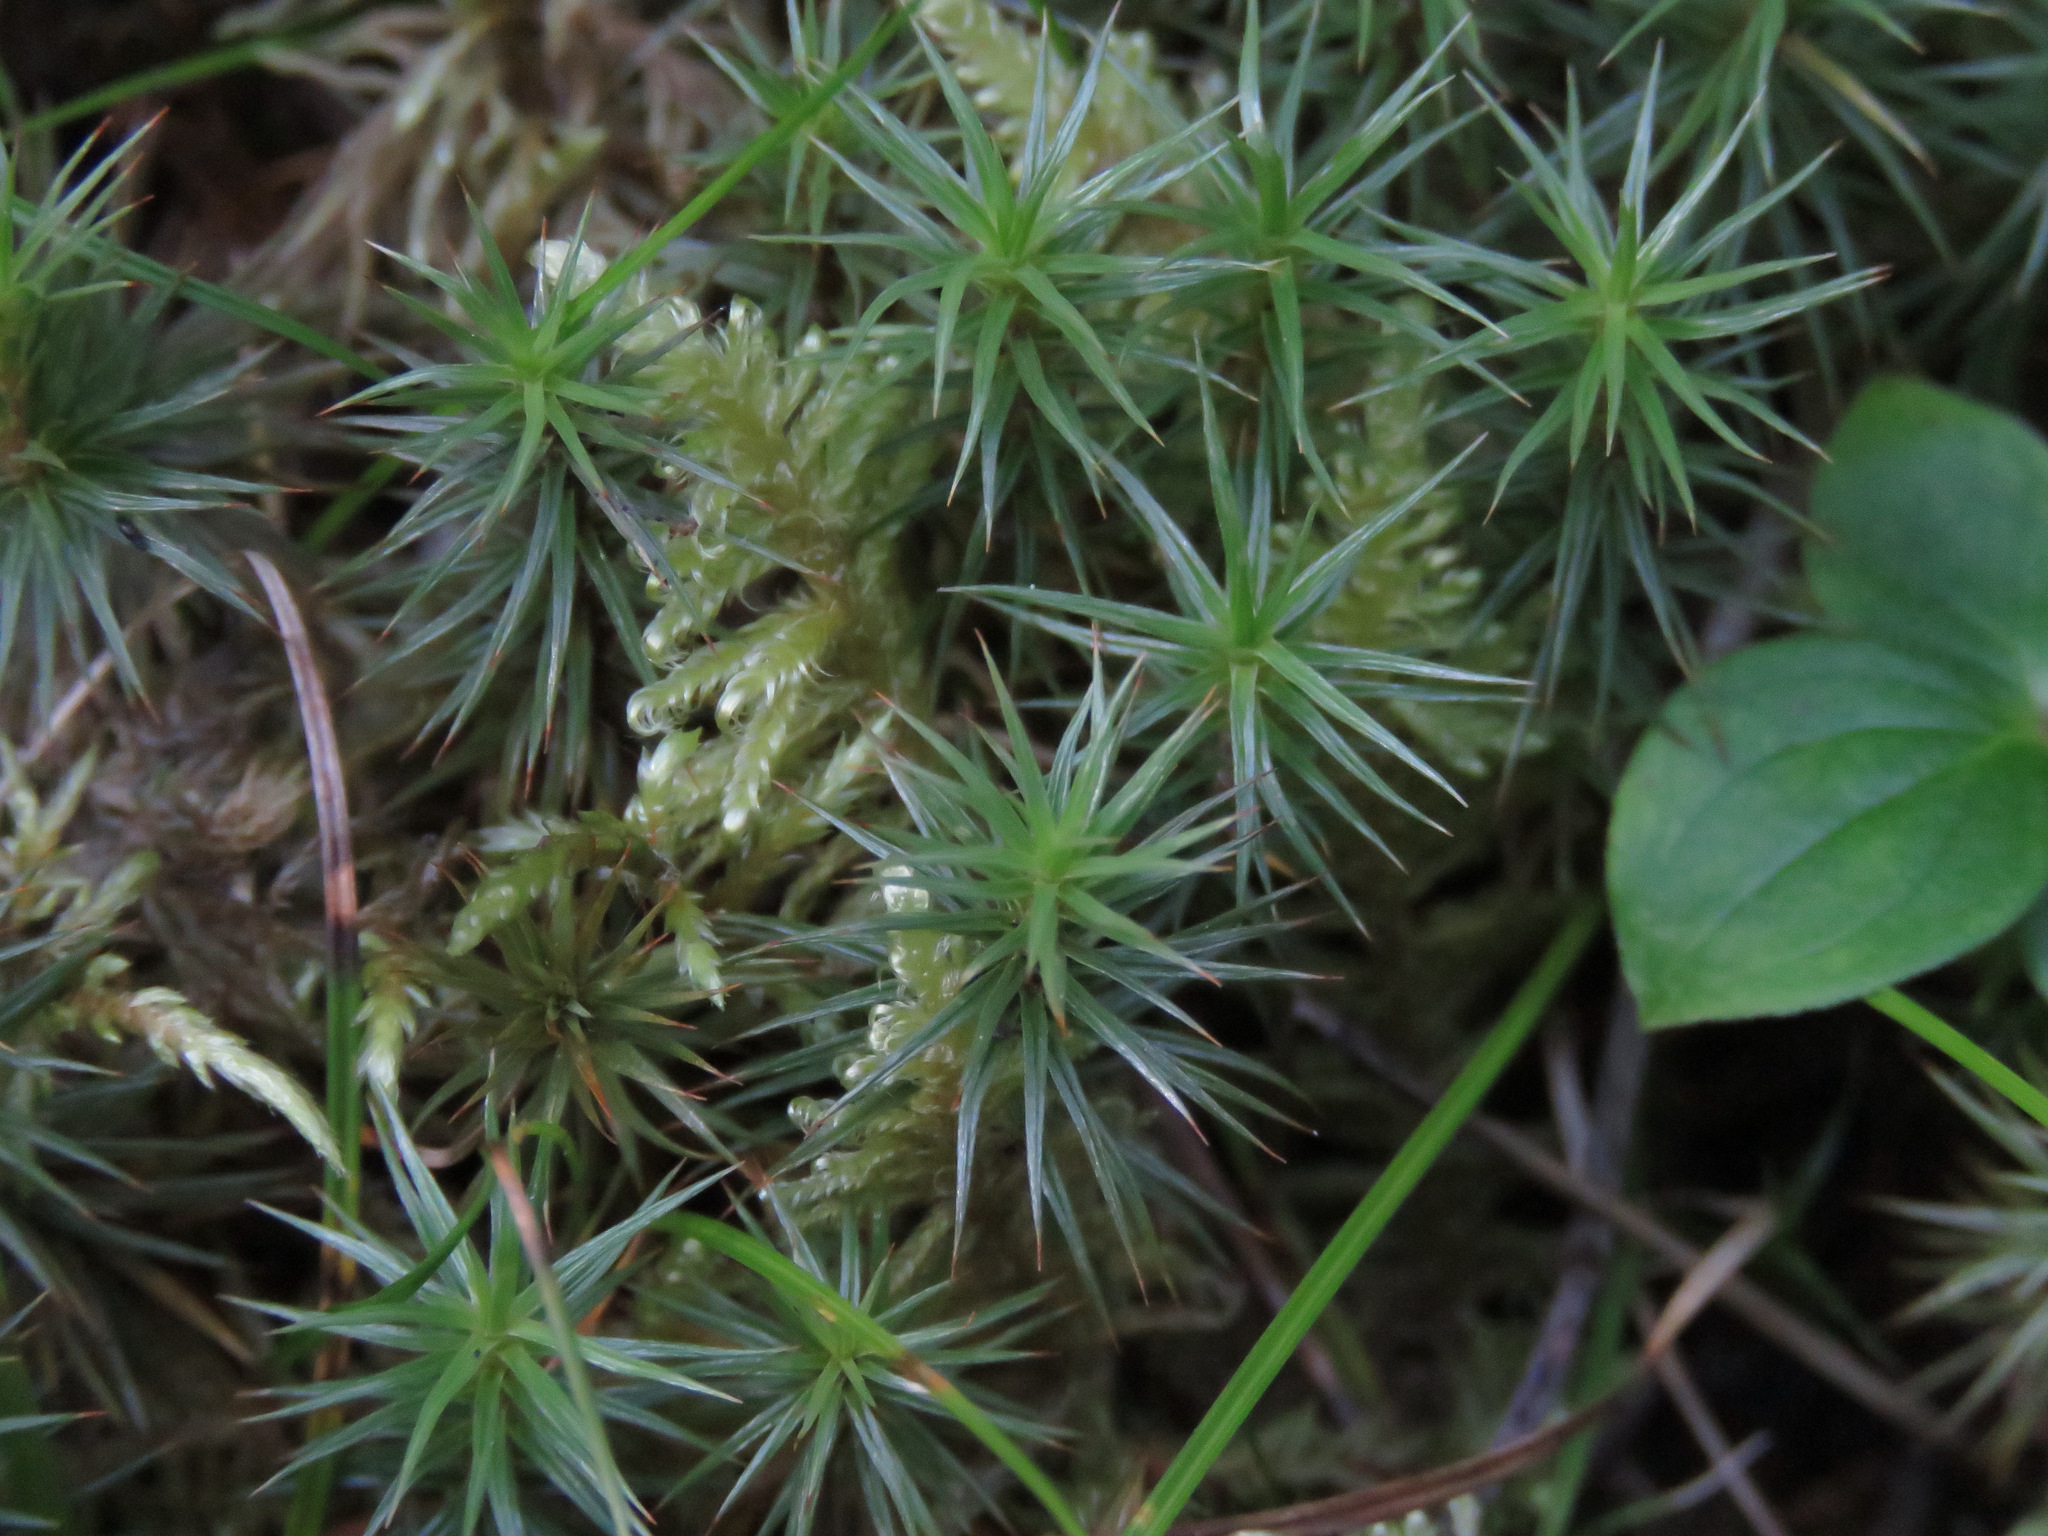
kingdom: Plantae
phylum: Bryophyta
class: Polytrichopsida
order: Polytrichales
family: Polytrichaceae
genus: Polytrichum
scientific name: Polytrichum juniperinum
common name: Juniper haircap moss
